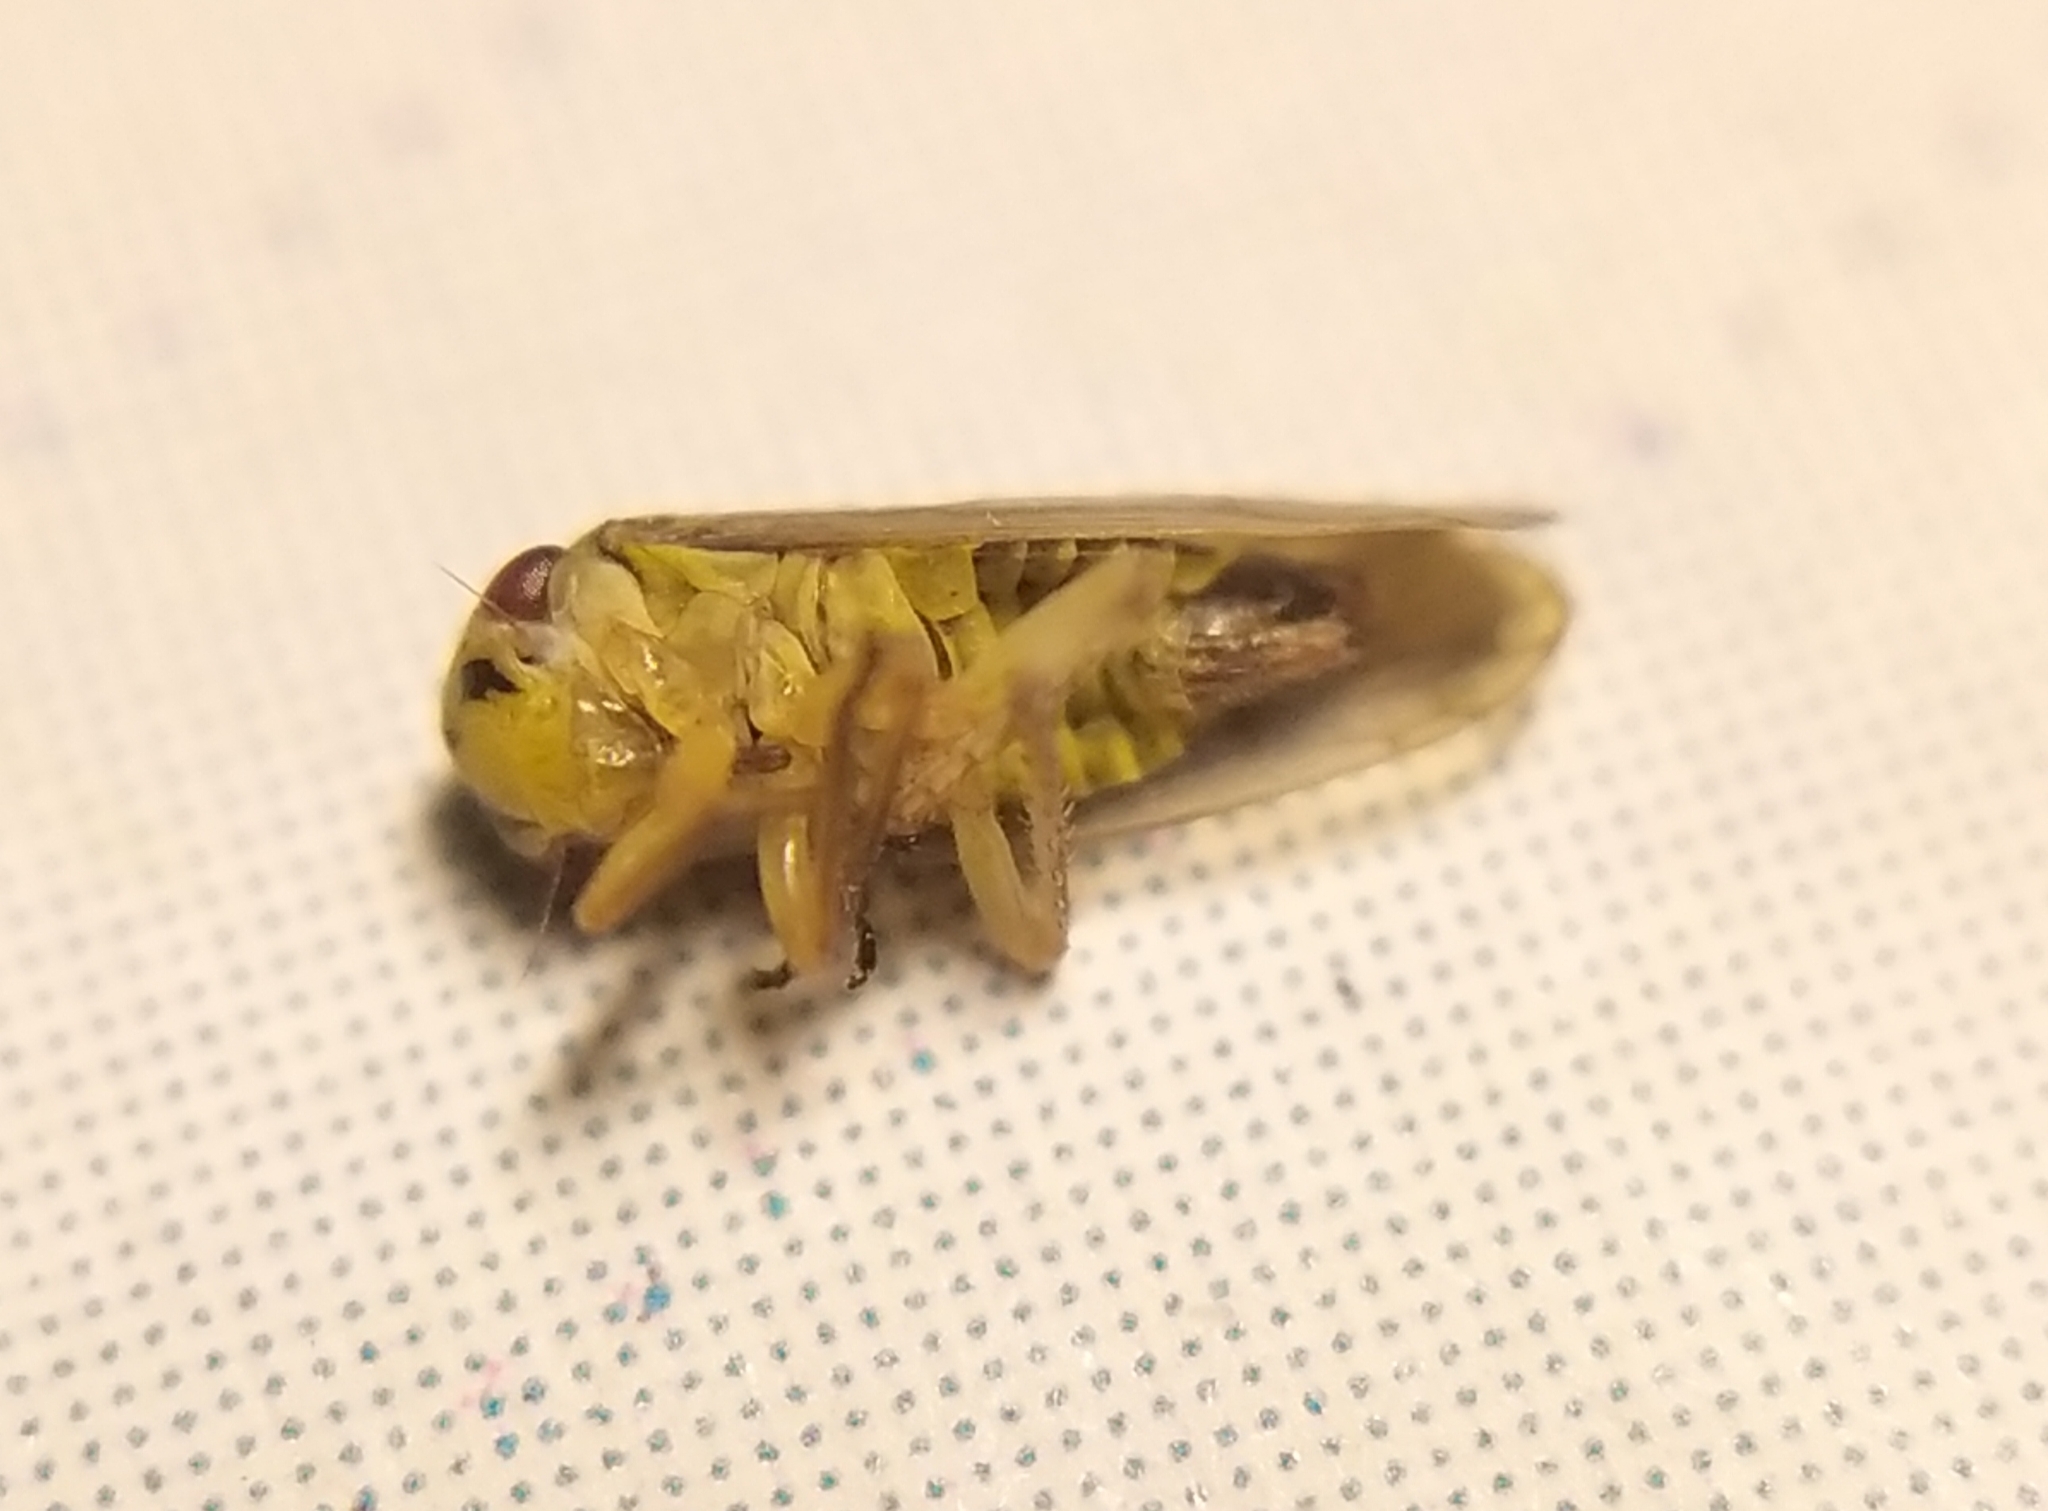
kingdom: Animalia
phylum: Arthropoda
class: Insecta
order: Hemiptera
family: Cicadellidae
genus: Oncopsis
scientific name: Oncopsis carpini
